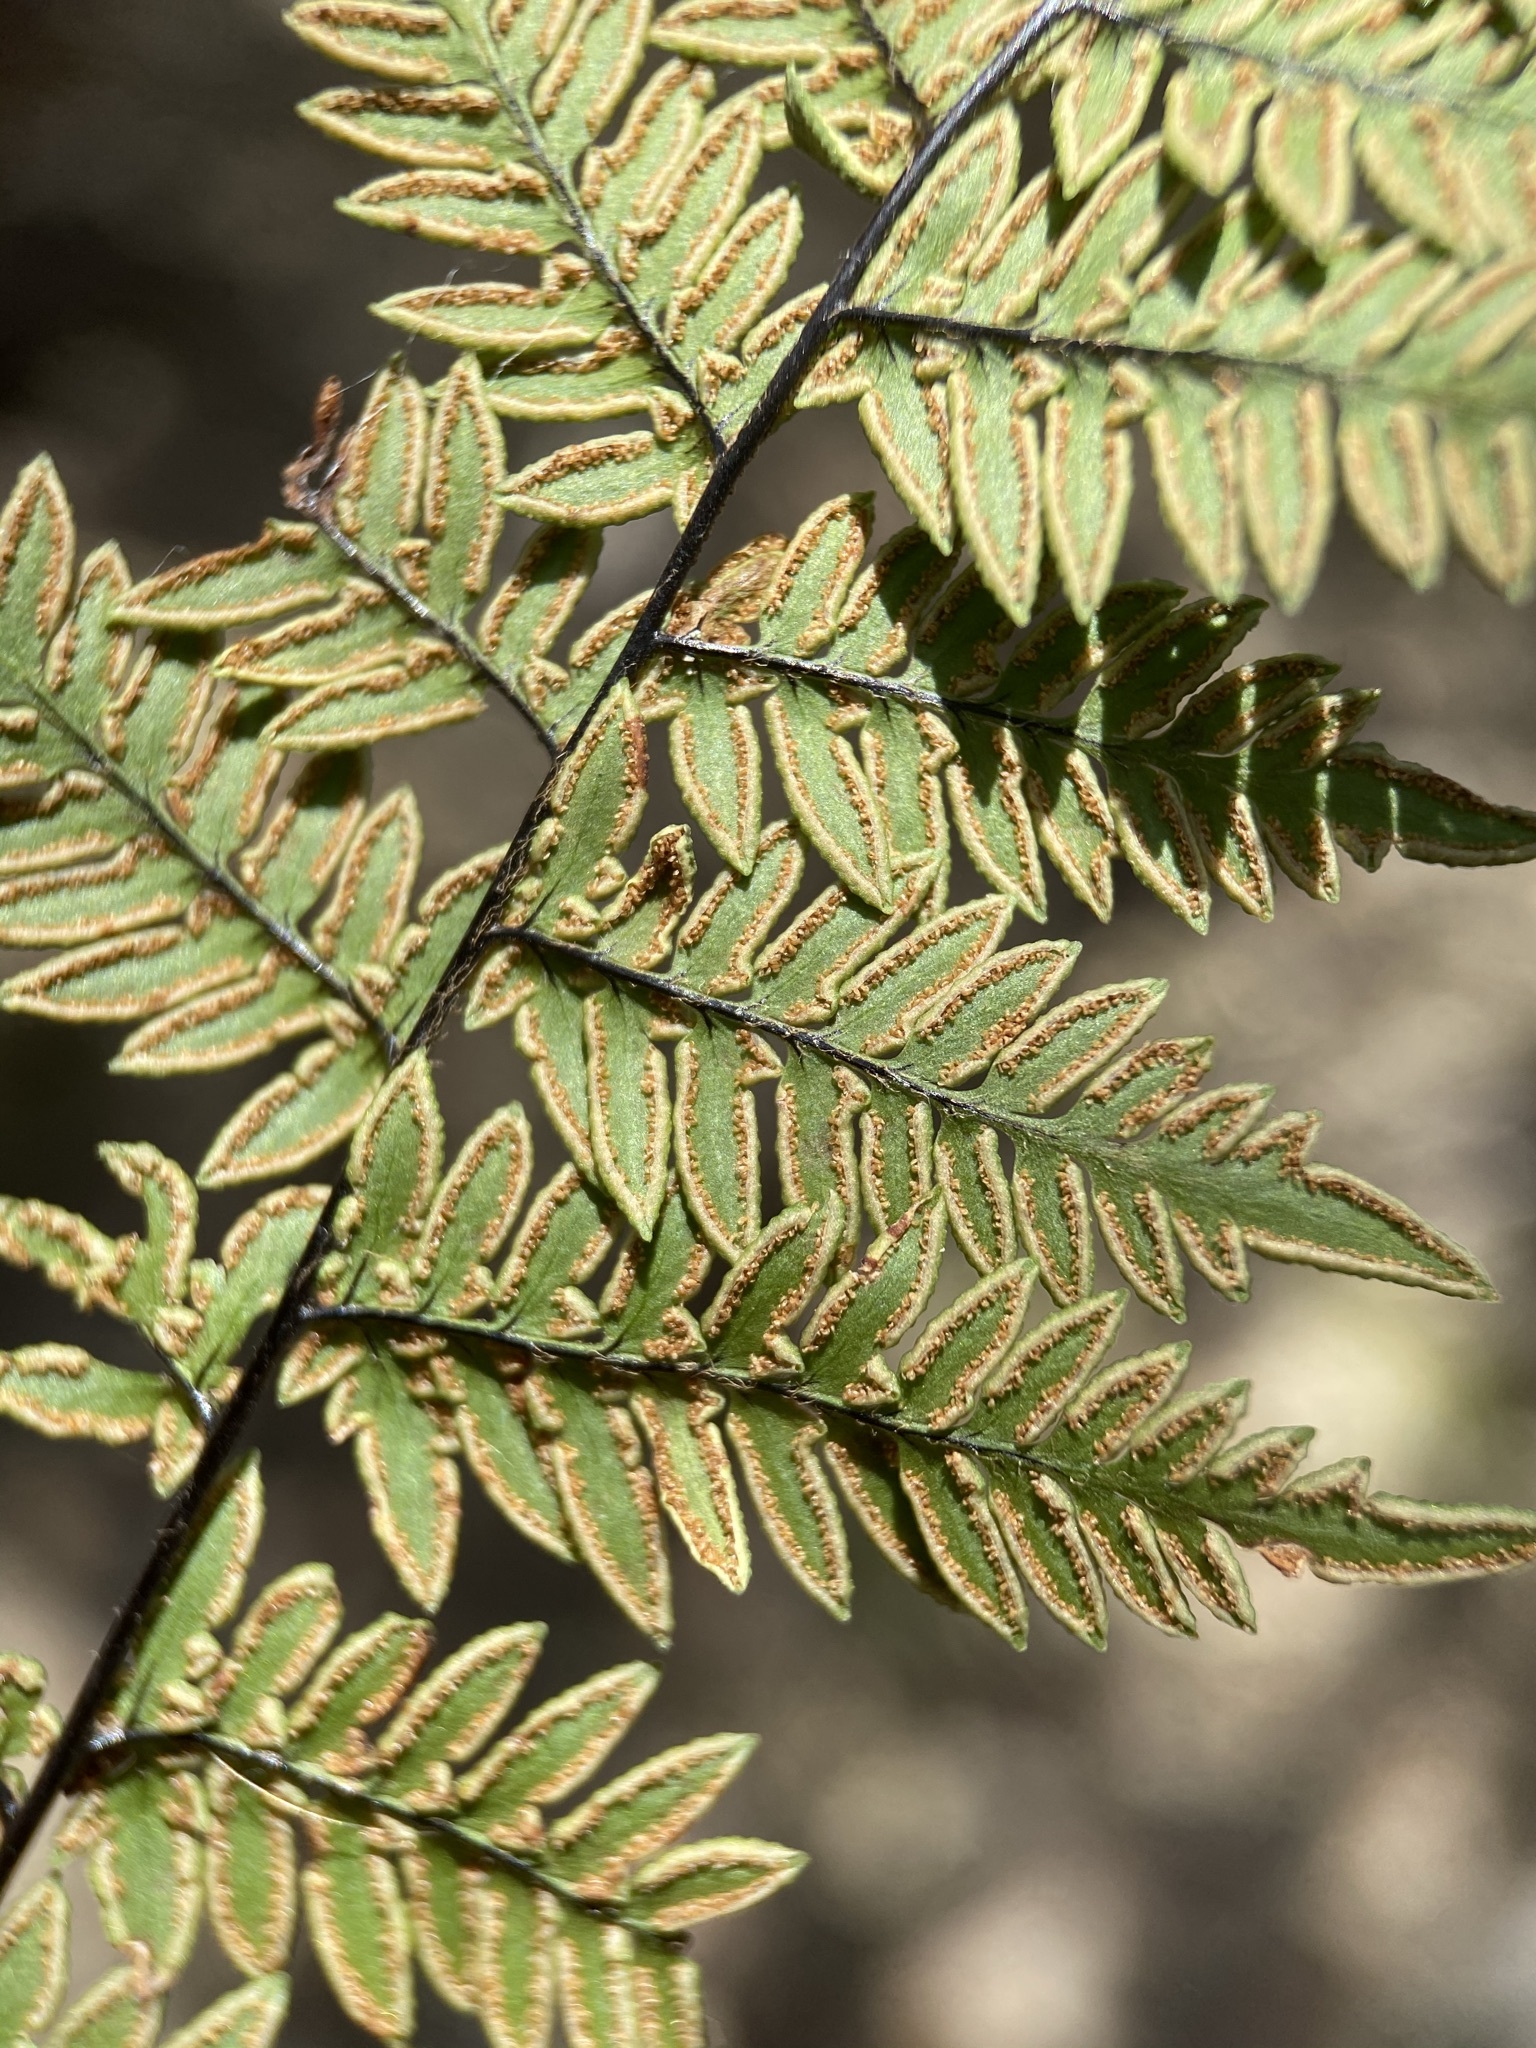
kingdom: Plantae
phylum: Tracheophyta
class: Polypodiopsida
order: Polypodiales
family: Pteridaceae
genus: Myriopteris
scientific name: Myriopteris alabamensis
